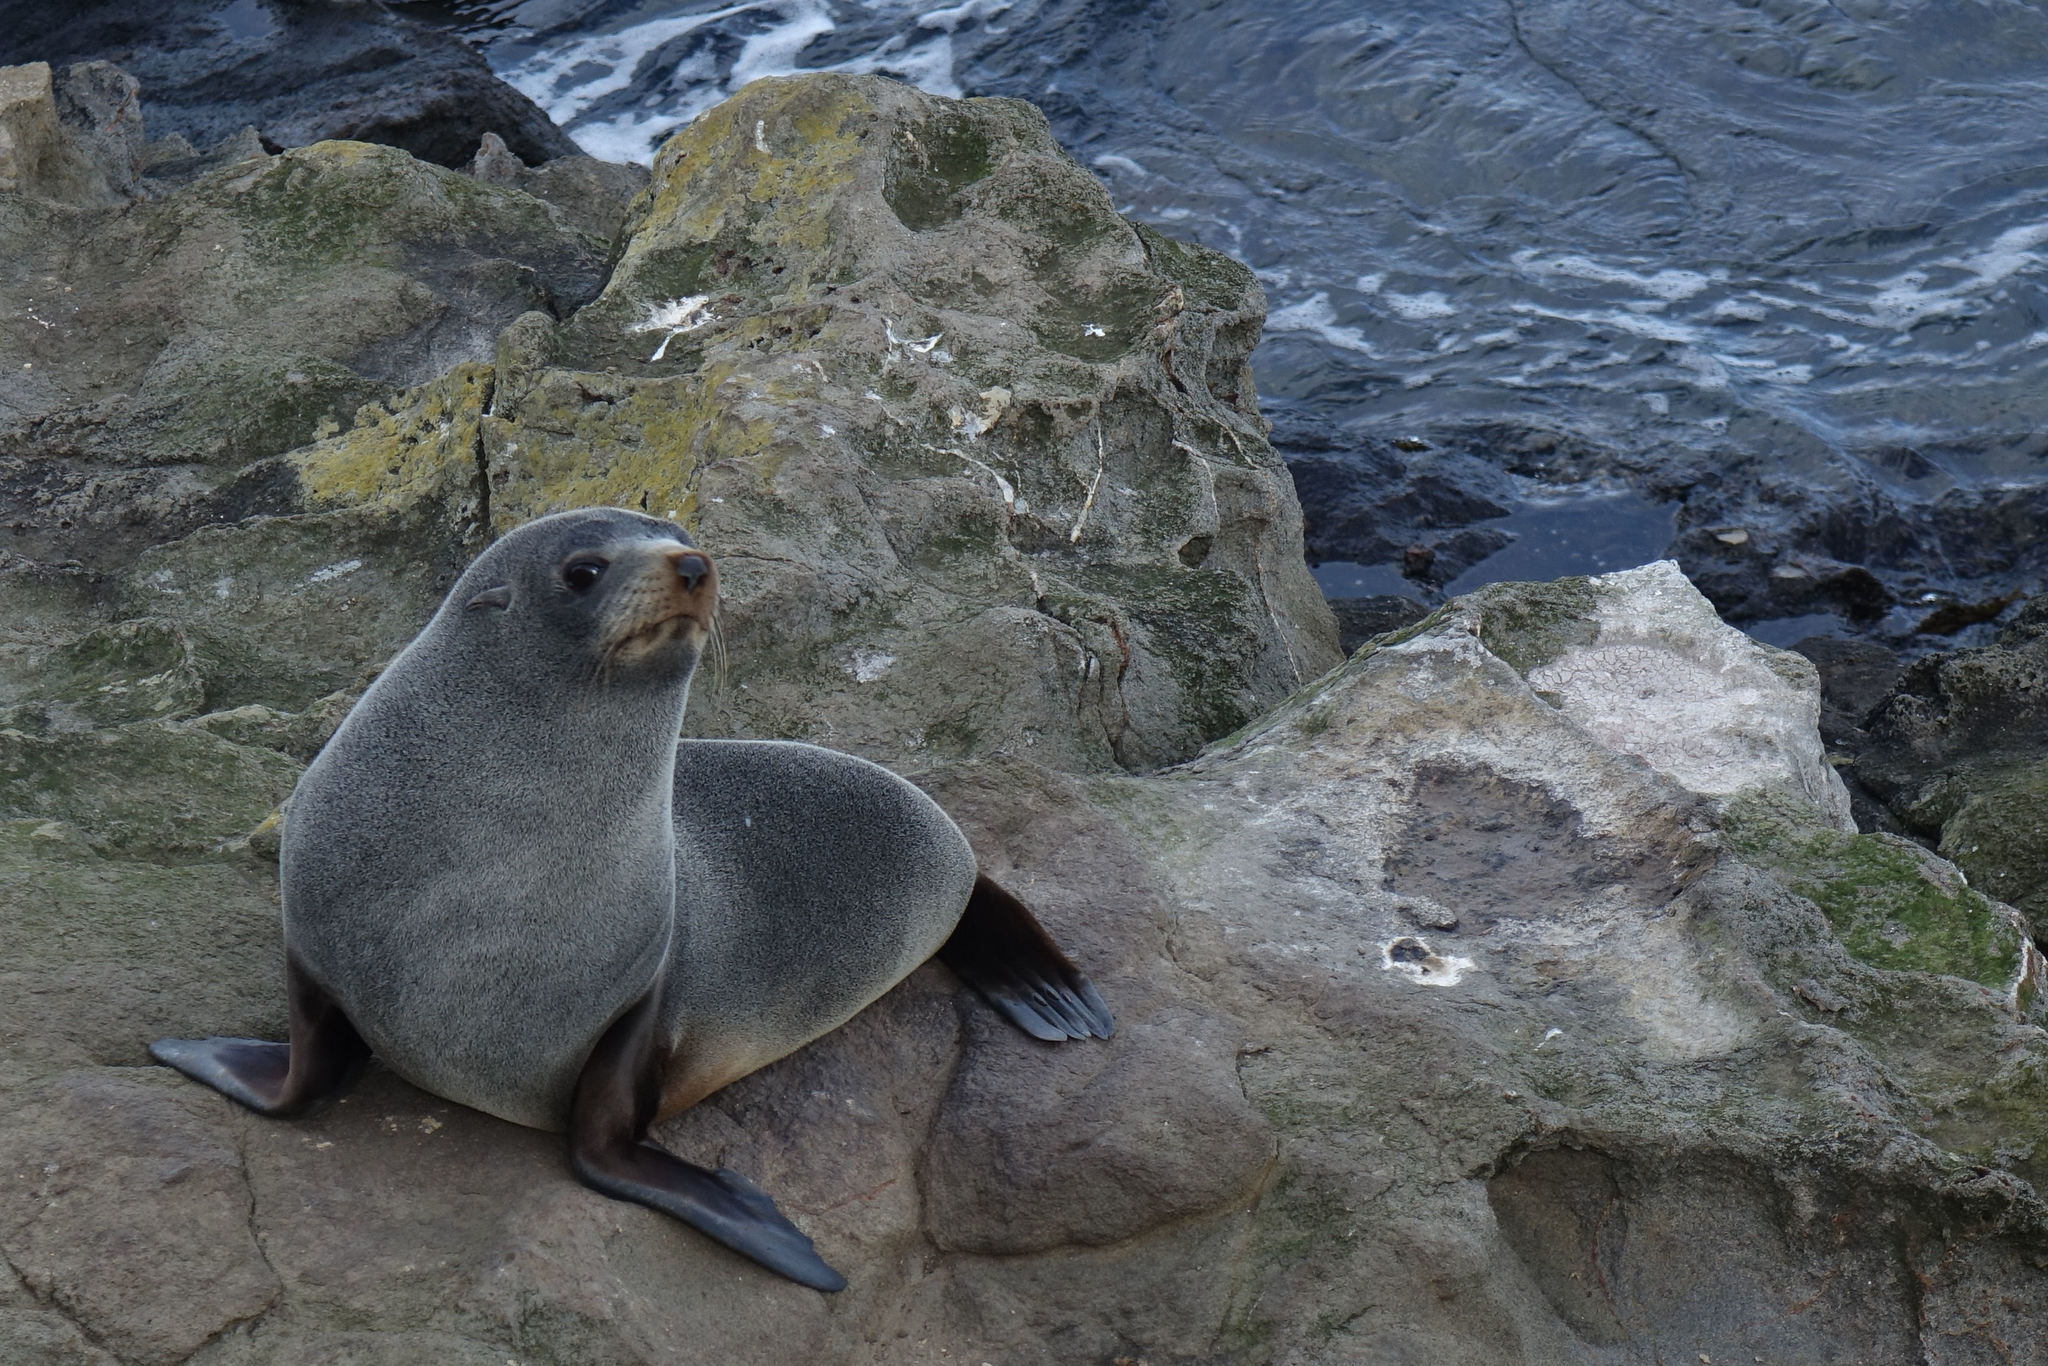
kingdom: Animalia
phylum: Chordata
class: Mammalia
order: Carnivora
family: Otariidae
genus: Arctocephalus
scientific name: Arctocephalus forsteri
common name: New zealand fur seal
